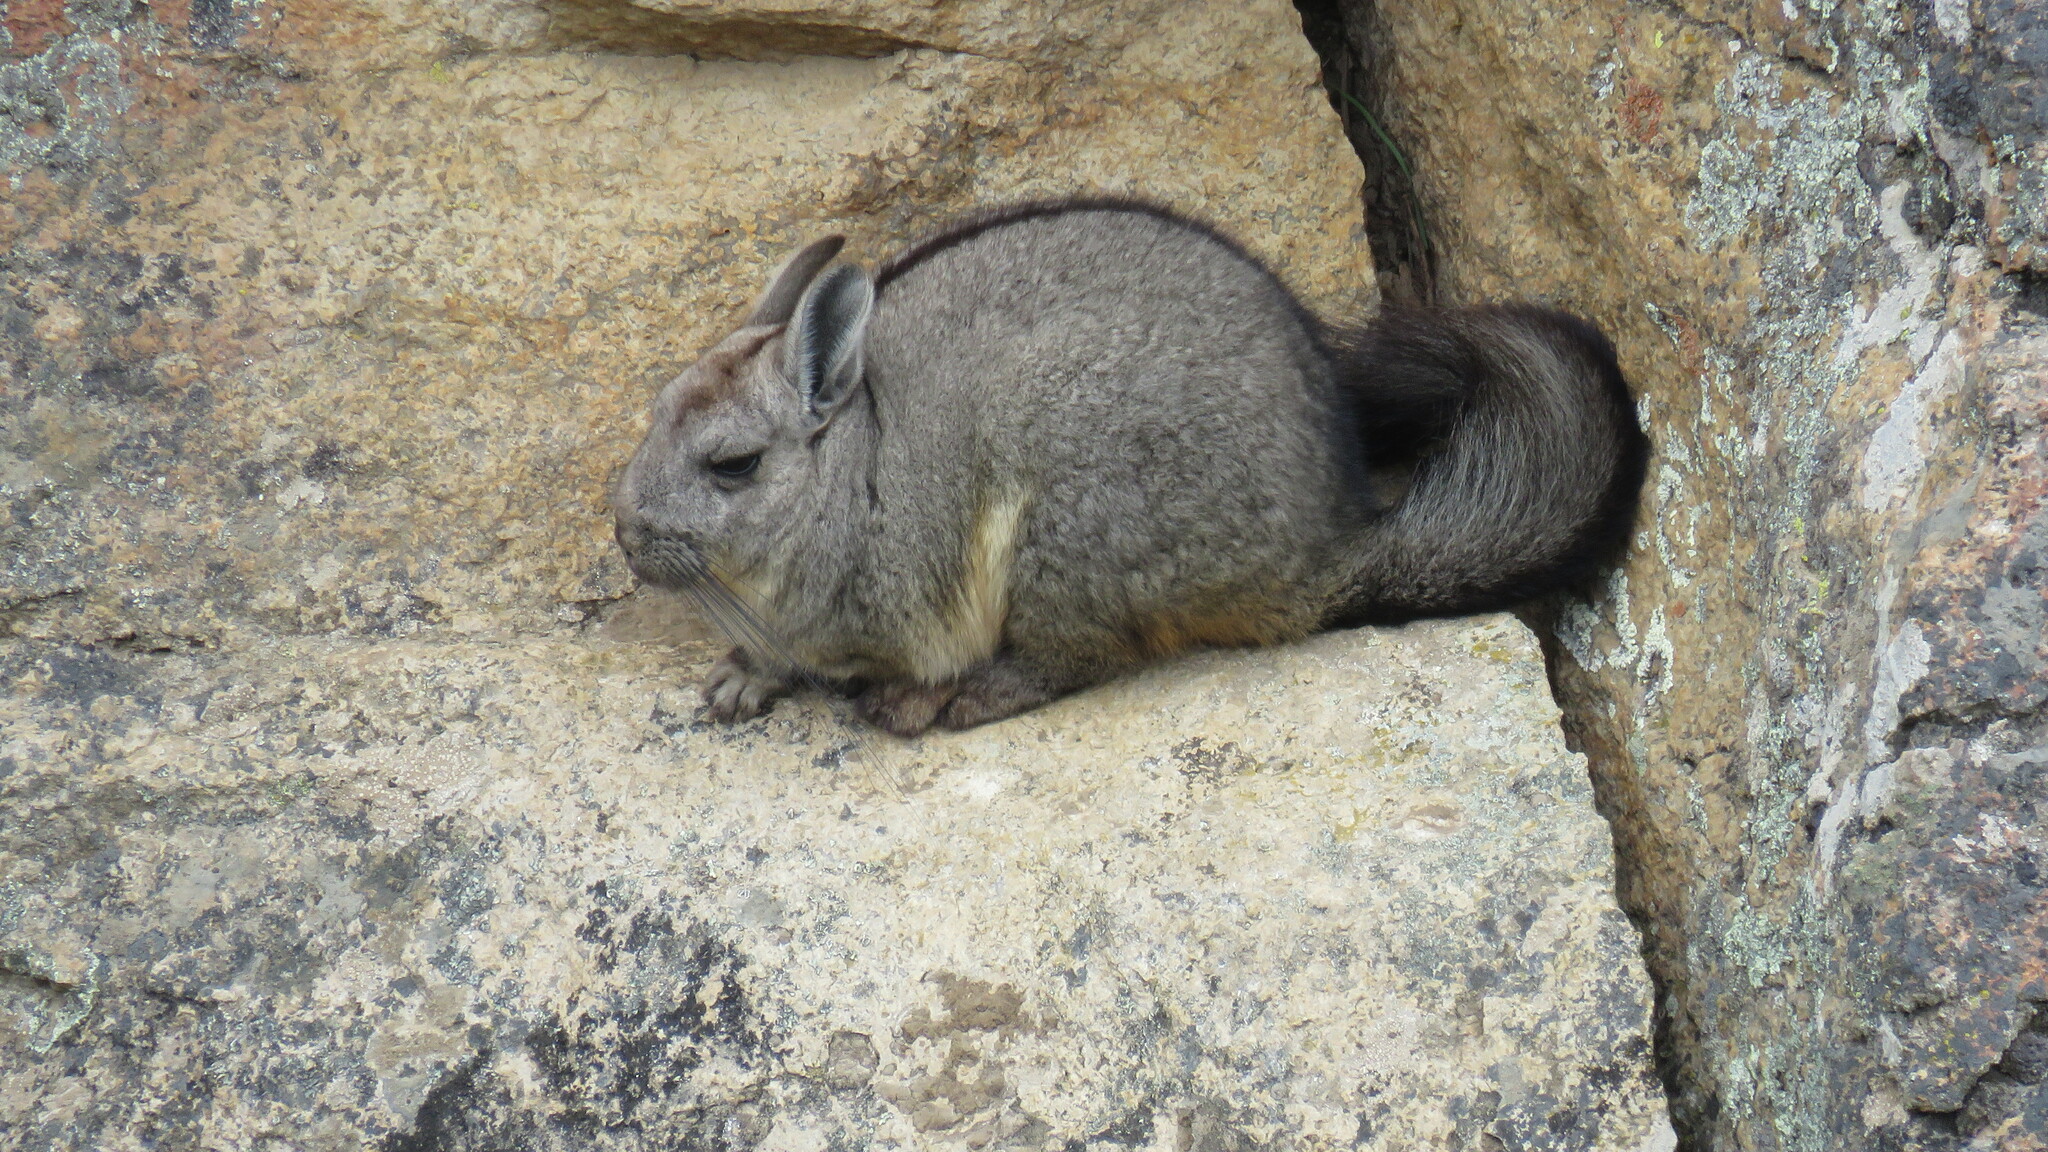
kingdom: Animalia
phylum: Chordata
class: Mammalia
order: Rodentia
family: Chinchillidae
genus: Lagidium
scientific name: Lagidium viscacia
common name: Southern viscacha
